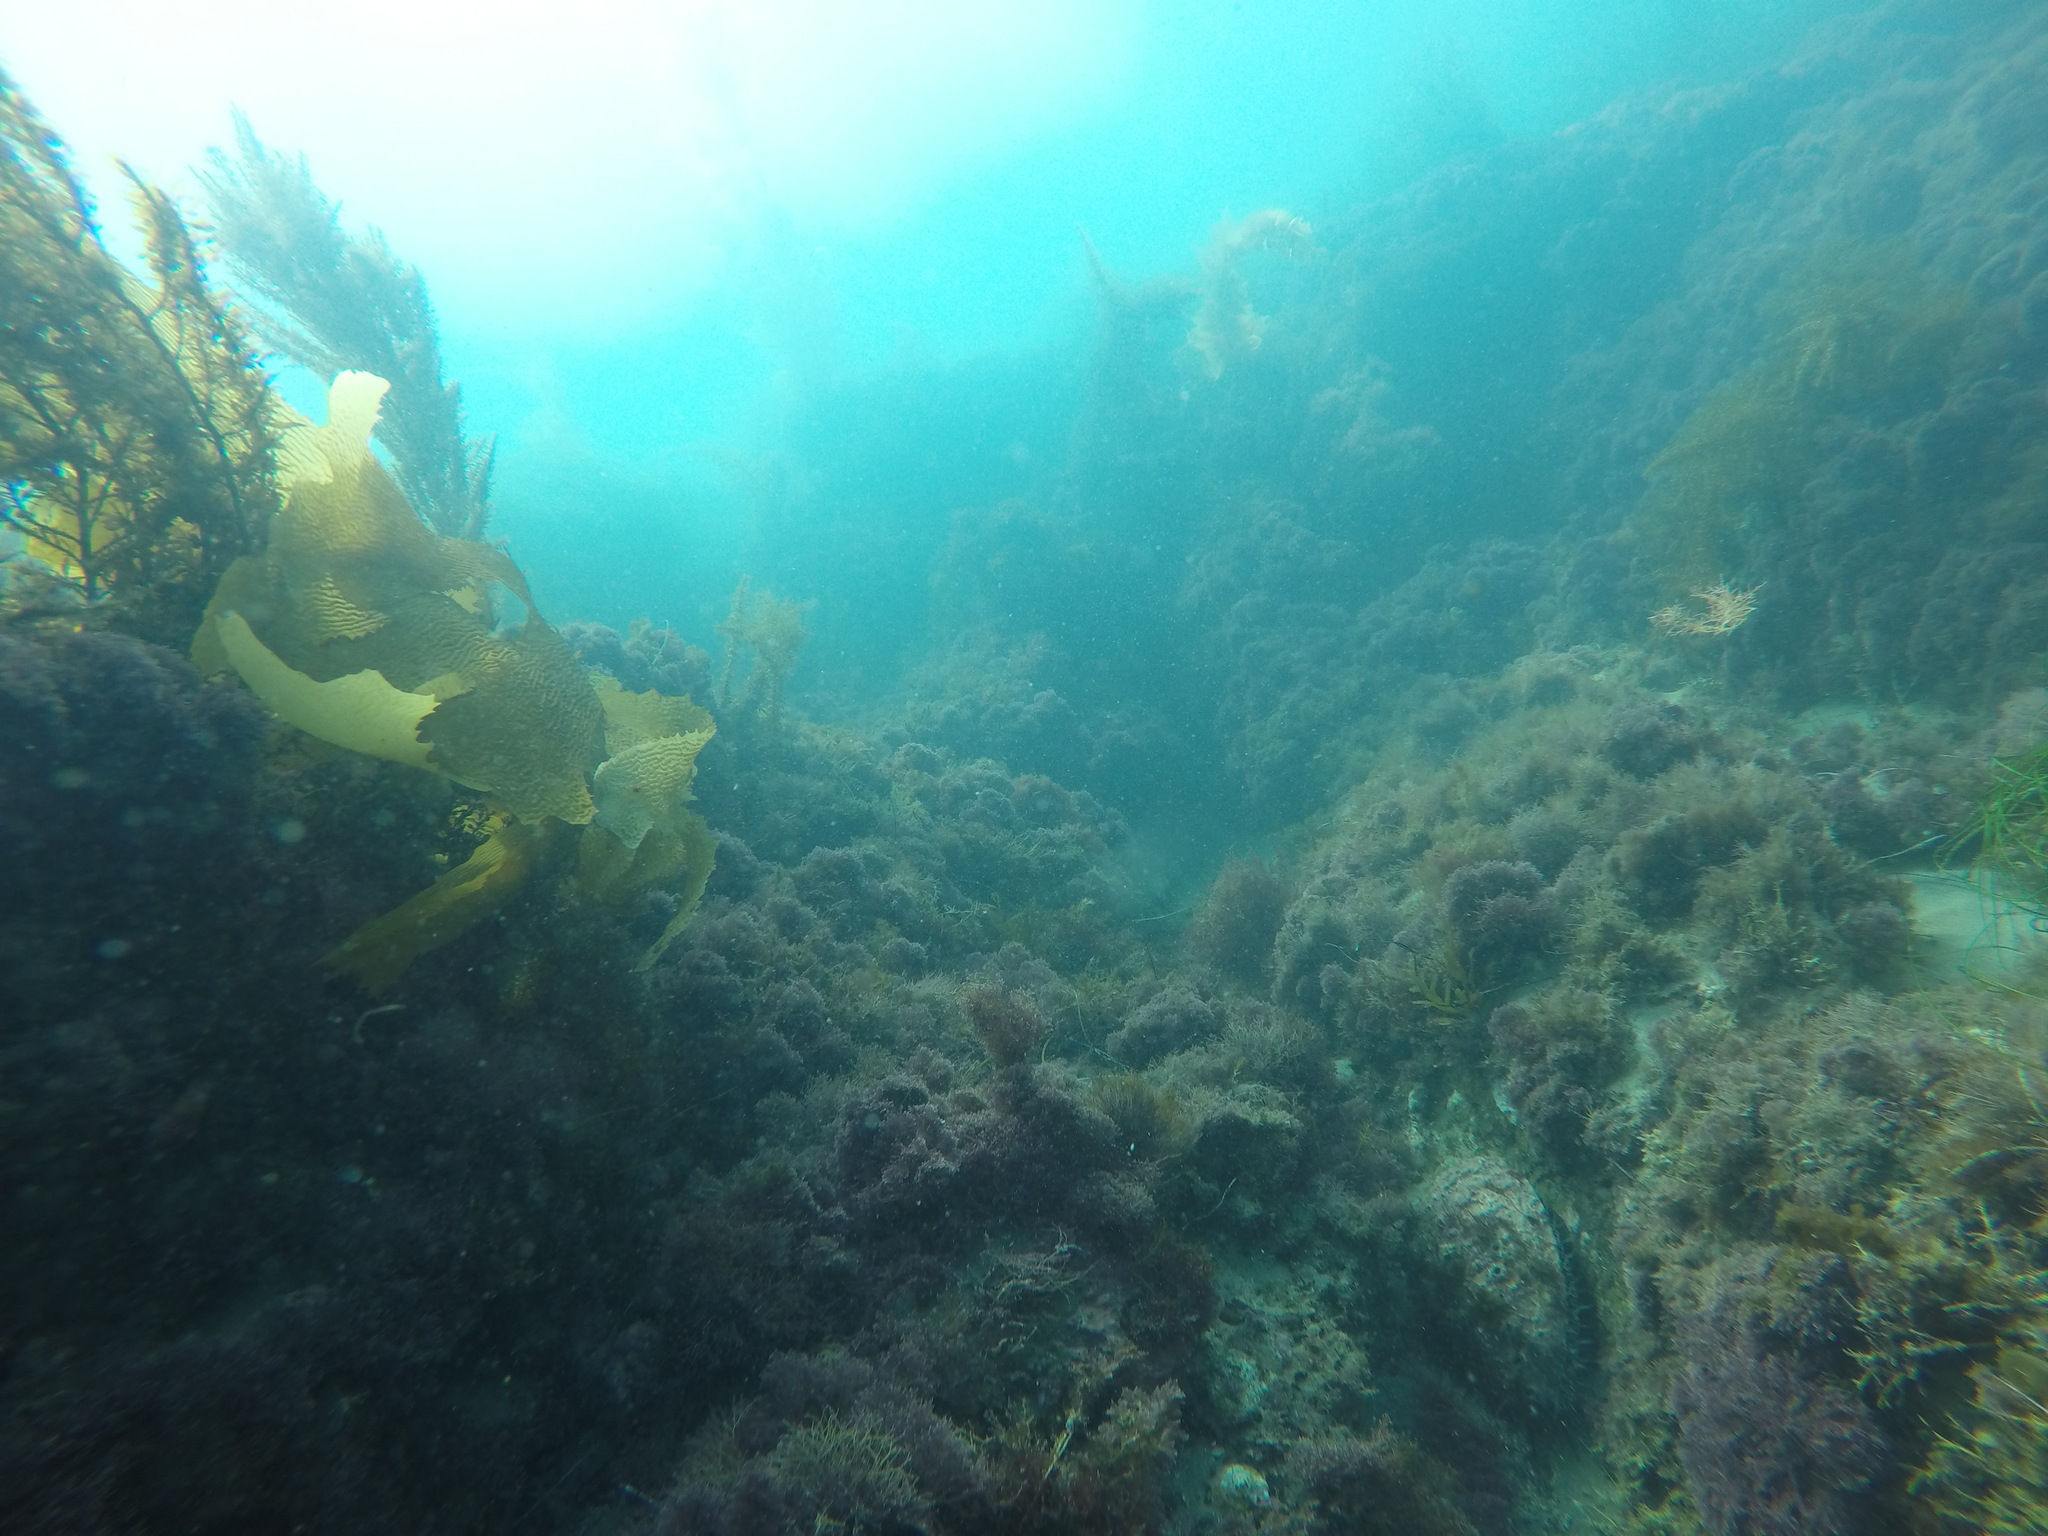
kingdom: Animalia
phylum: Mollusca
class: Gastropoda
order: Lepetellida
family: Haliotidae
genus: Haliotis
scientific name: Haliotis rufescens
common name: Red abalone
